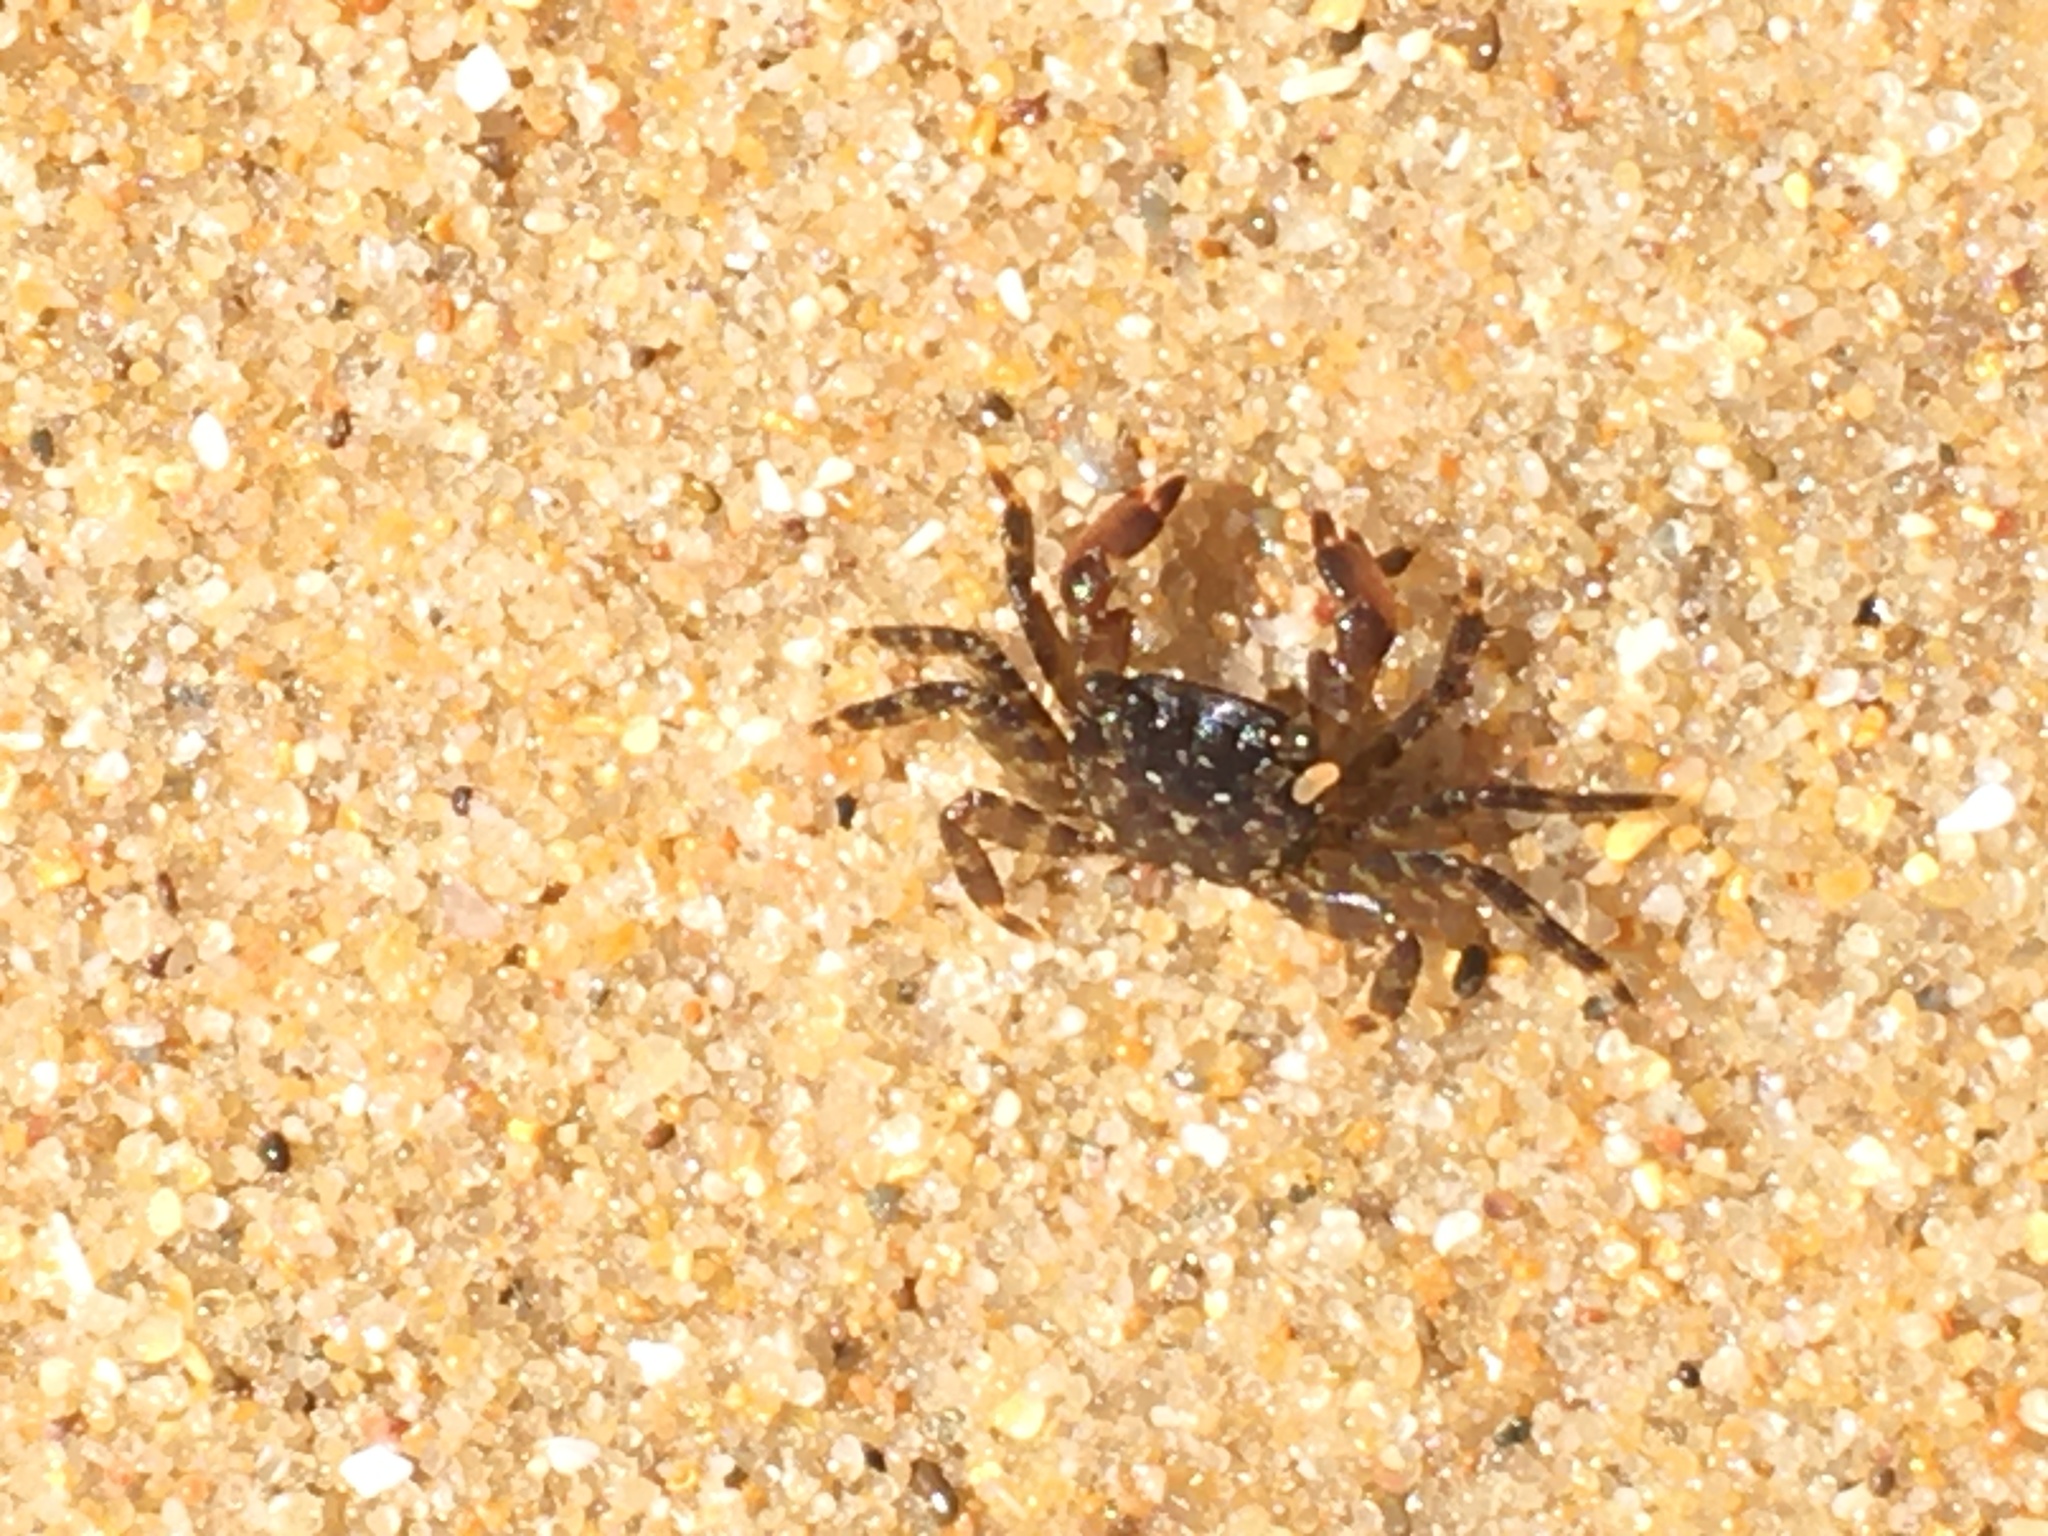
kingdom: Animalia
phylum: Arthropoda
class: Malacostraca
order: Decapoda
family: Grapsidae
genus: Pachygrapsus
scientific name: Pachygrapsus marmoratus
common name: Marbled rock crab
